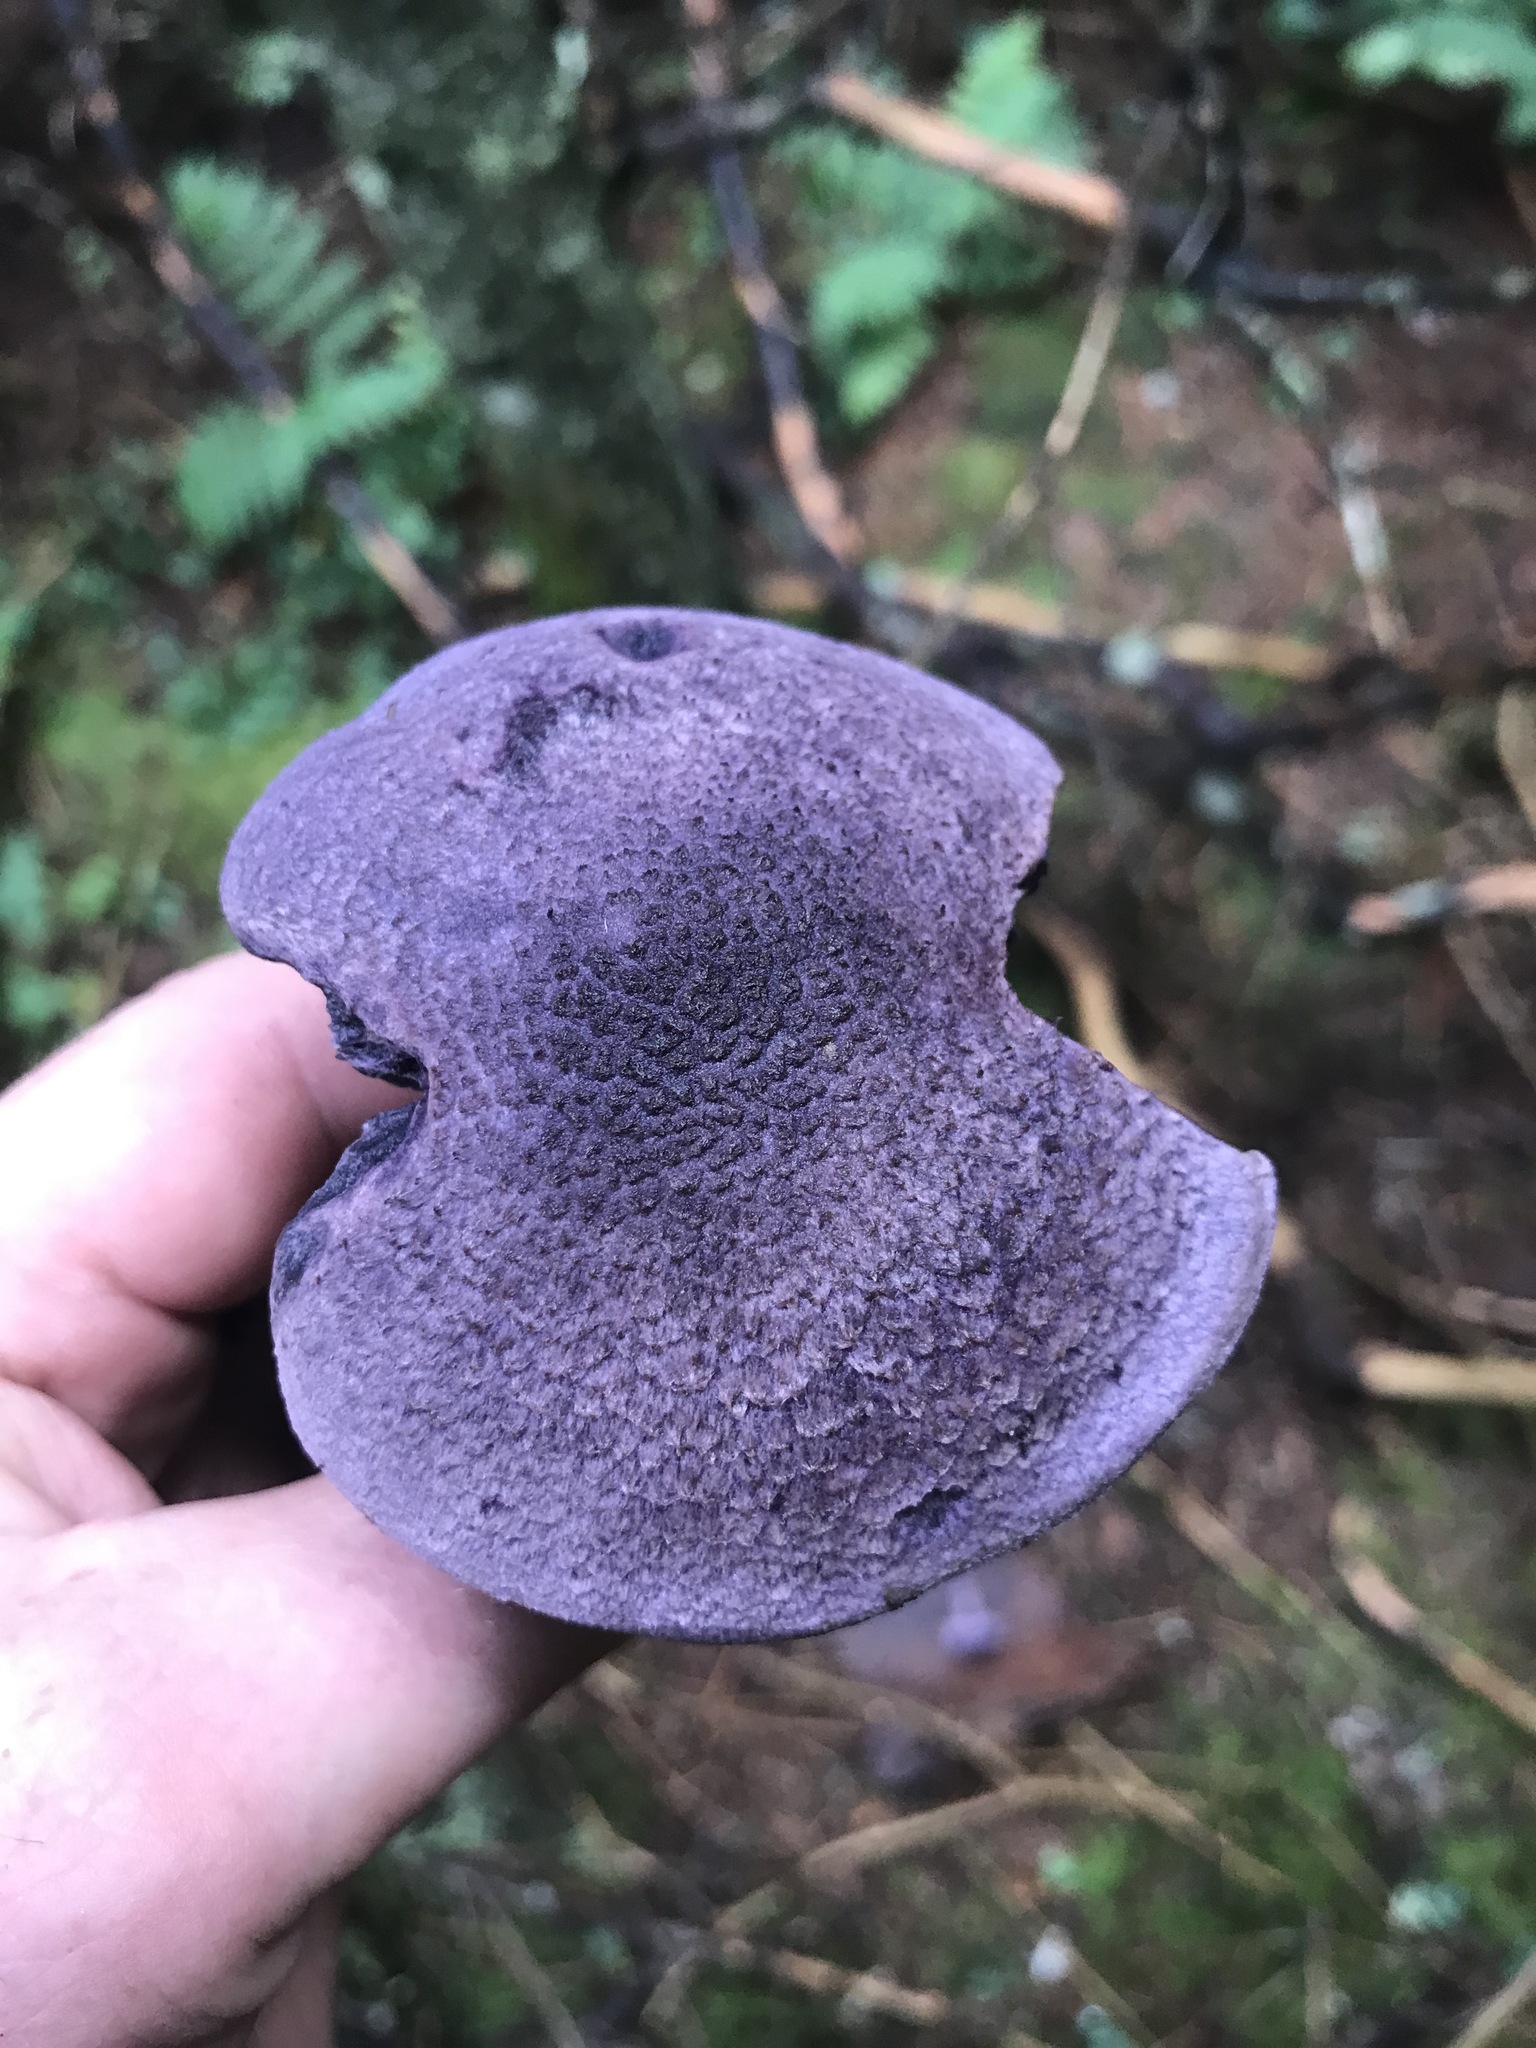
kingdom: Fungi
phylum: Basidiomycota
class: Agaricomycetes
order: Agaricales
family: Cortinariaceae
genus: Cortinarius
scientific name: Cortinarius violaceus
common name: Violet webcap
